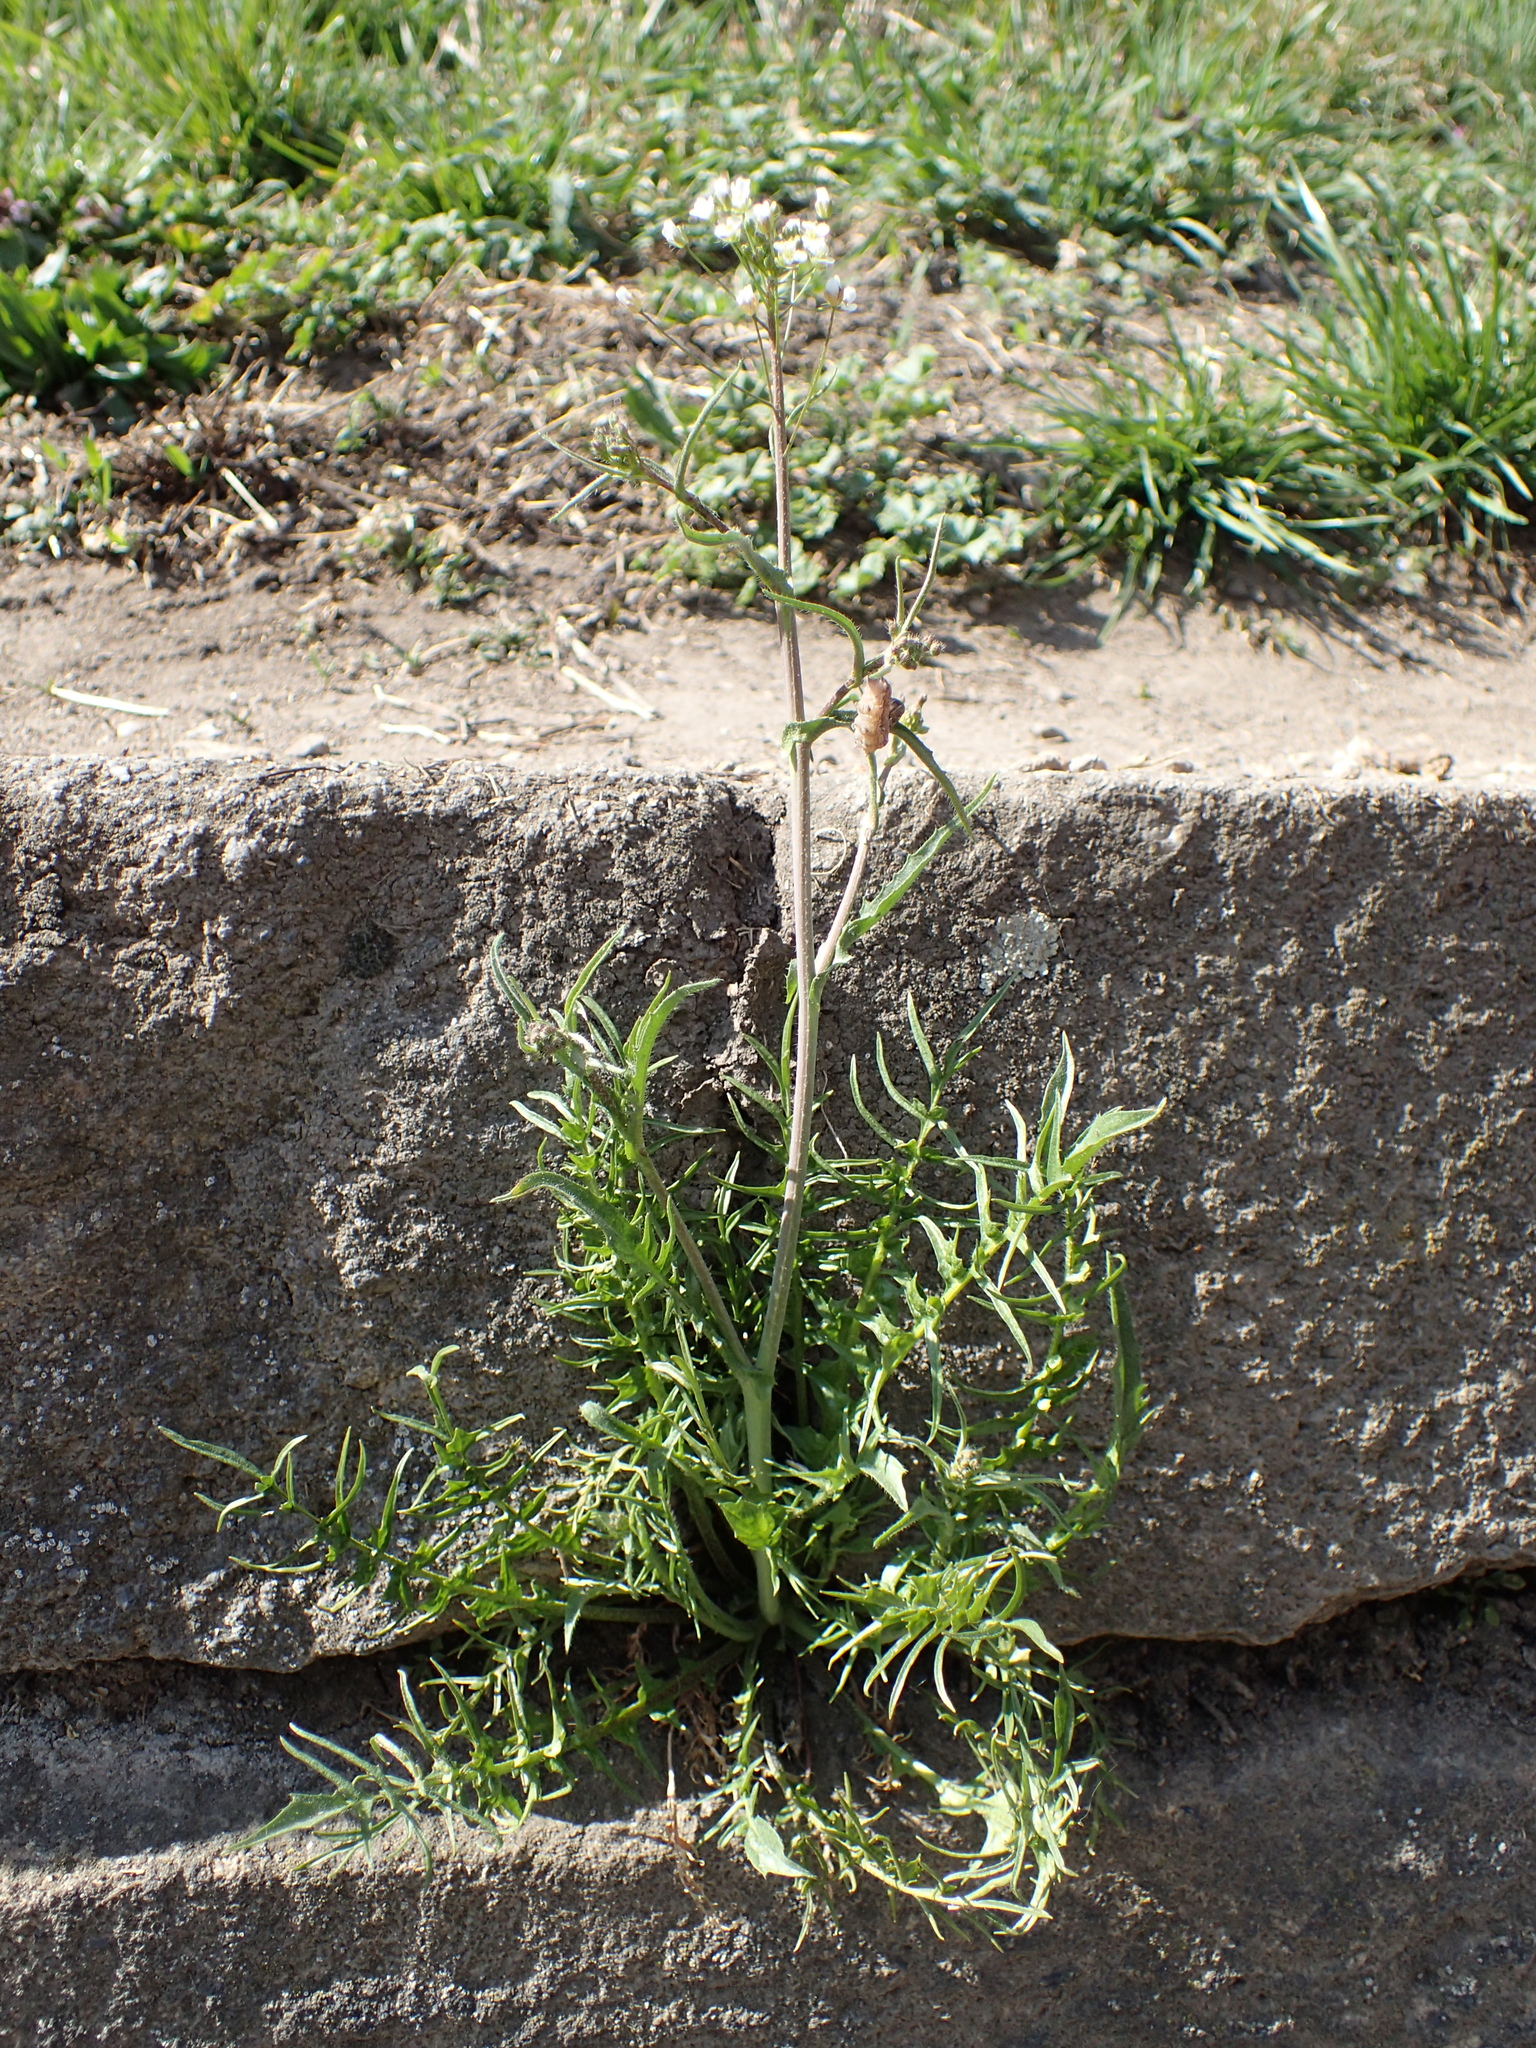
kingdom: Plantae
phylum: Tracheophyta
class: Magnoliopsida
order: Brassicales
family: Brassicaceae
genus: Capsella
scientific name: Capsella bursa-pastoris
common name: Shepherd's purse
